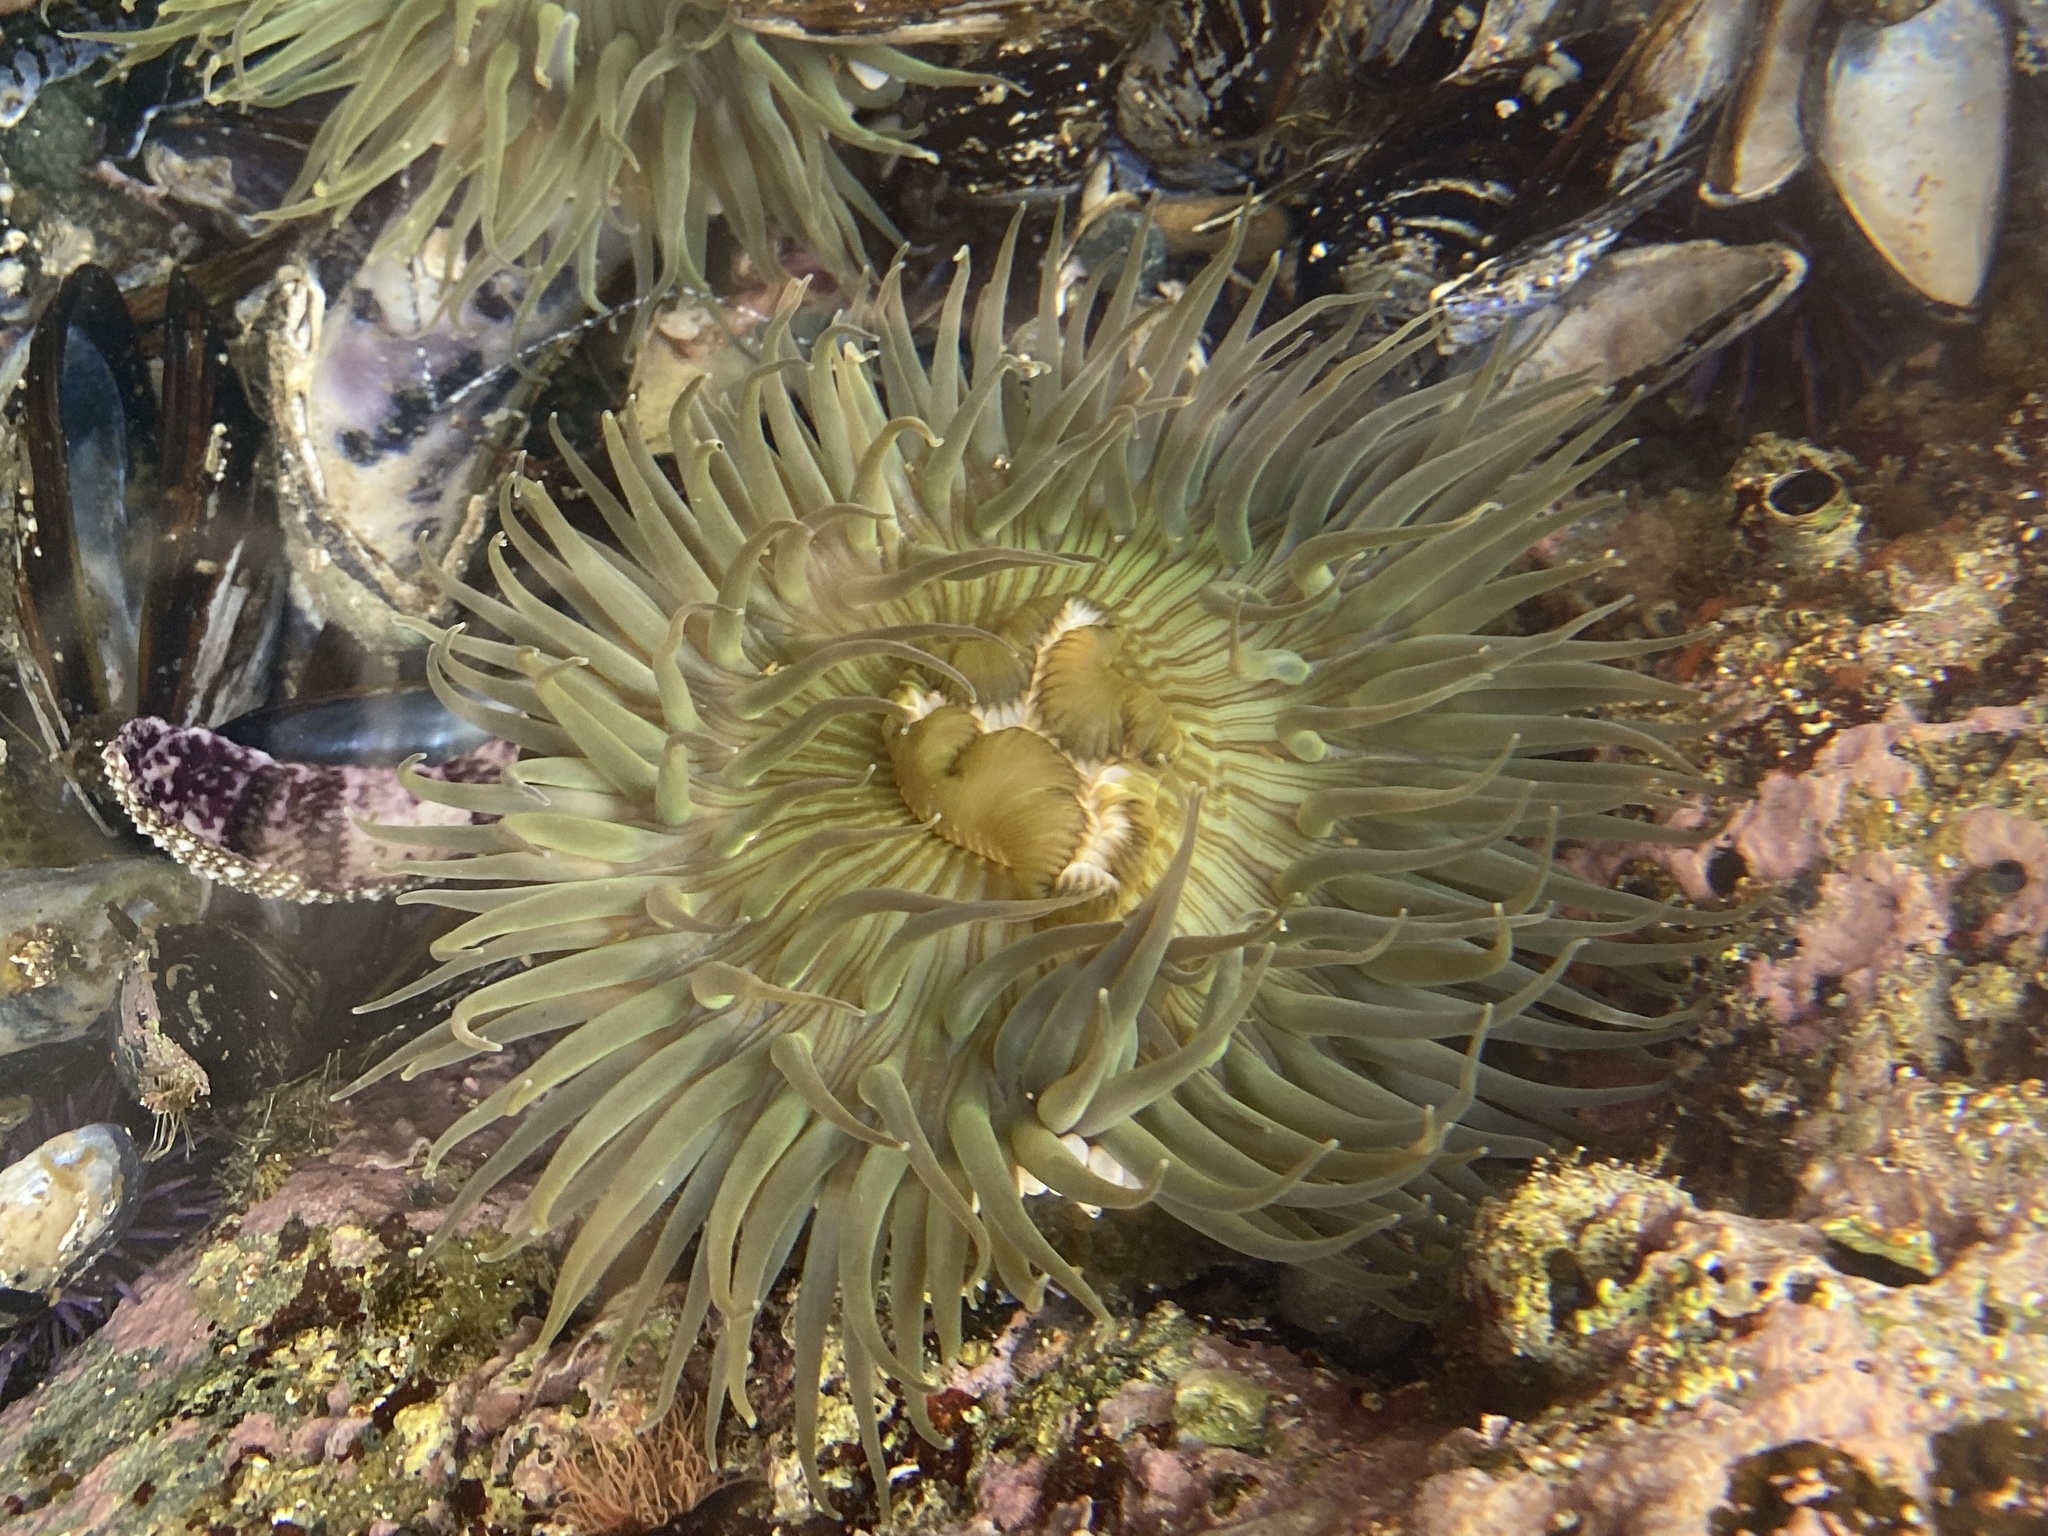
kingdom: Animalia
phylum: Cnidaria
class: Anthozoa
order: Actiniaria
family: Actiniidae
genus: Anthopleura
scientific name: Anthopleura sola
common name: Sun anemone
